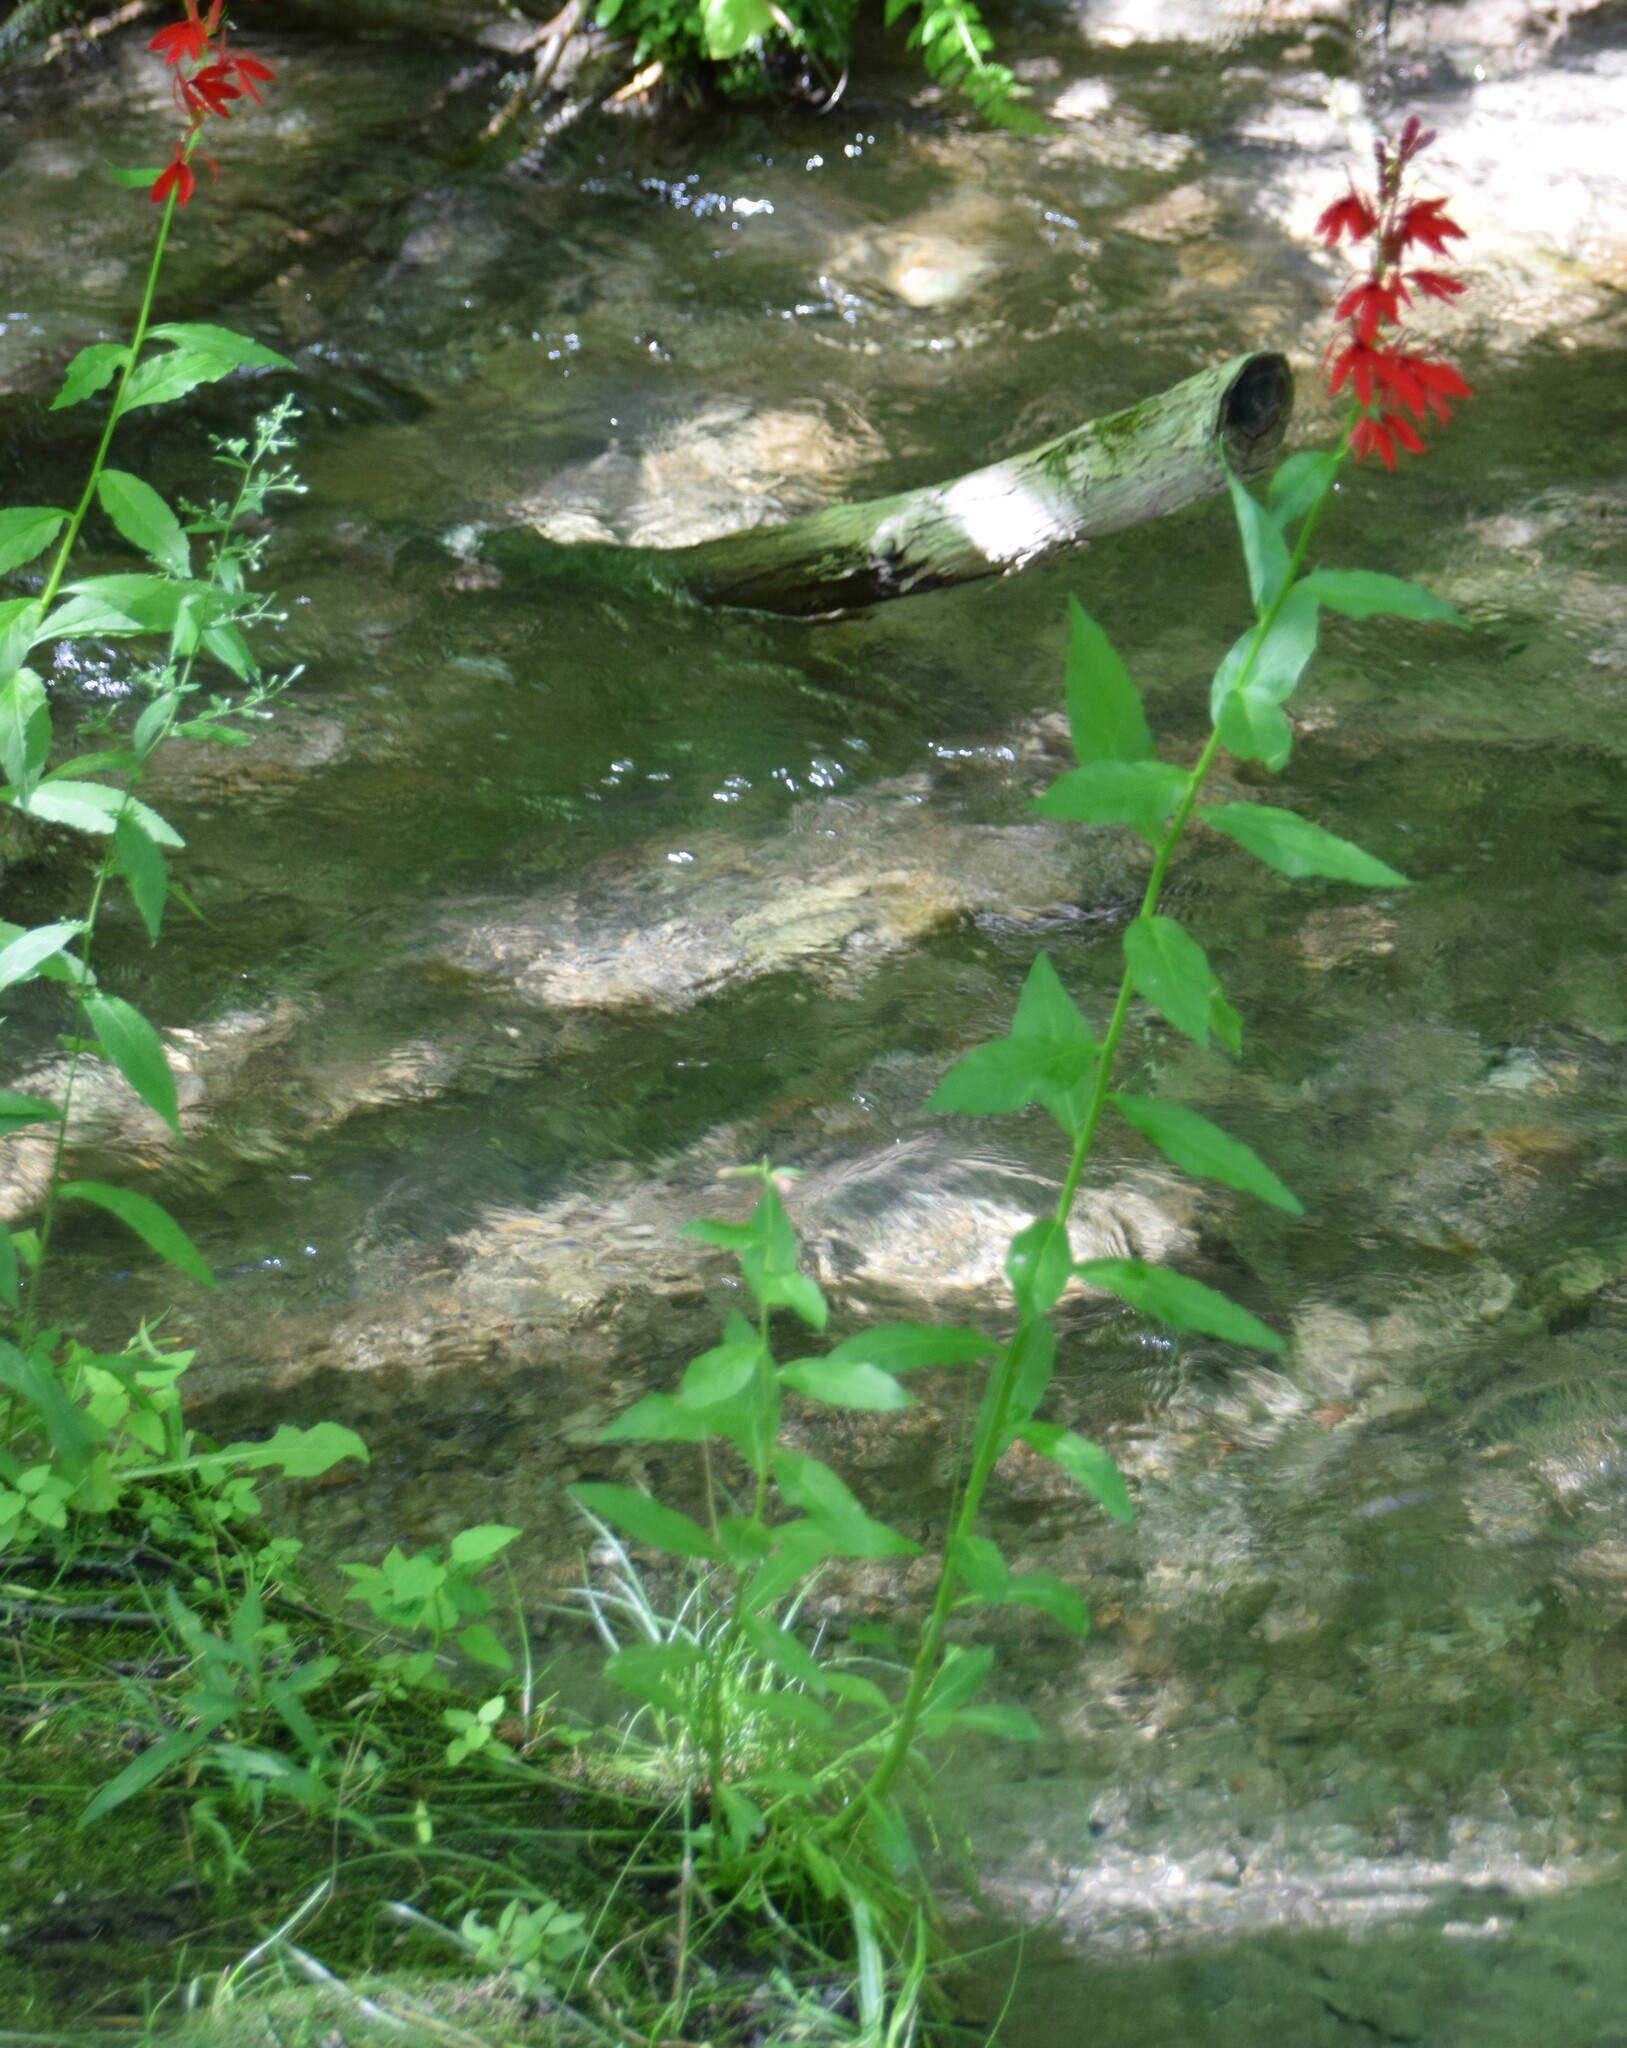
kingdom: Plantae
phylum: Tracheophyta
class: Magnoliopsida
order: Asterales
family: Campanulaceae
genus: Lobelia
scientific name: Lobelia cardinalis
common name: Cardinal flower
